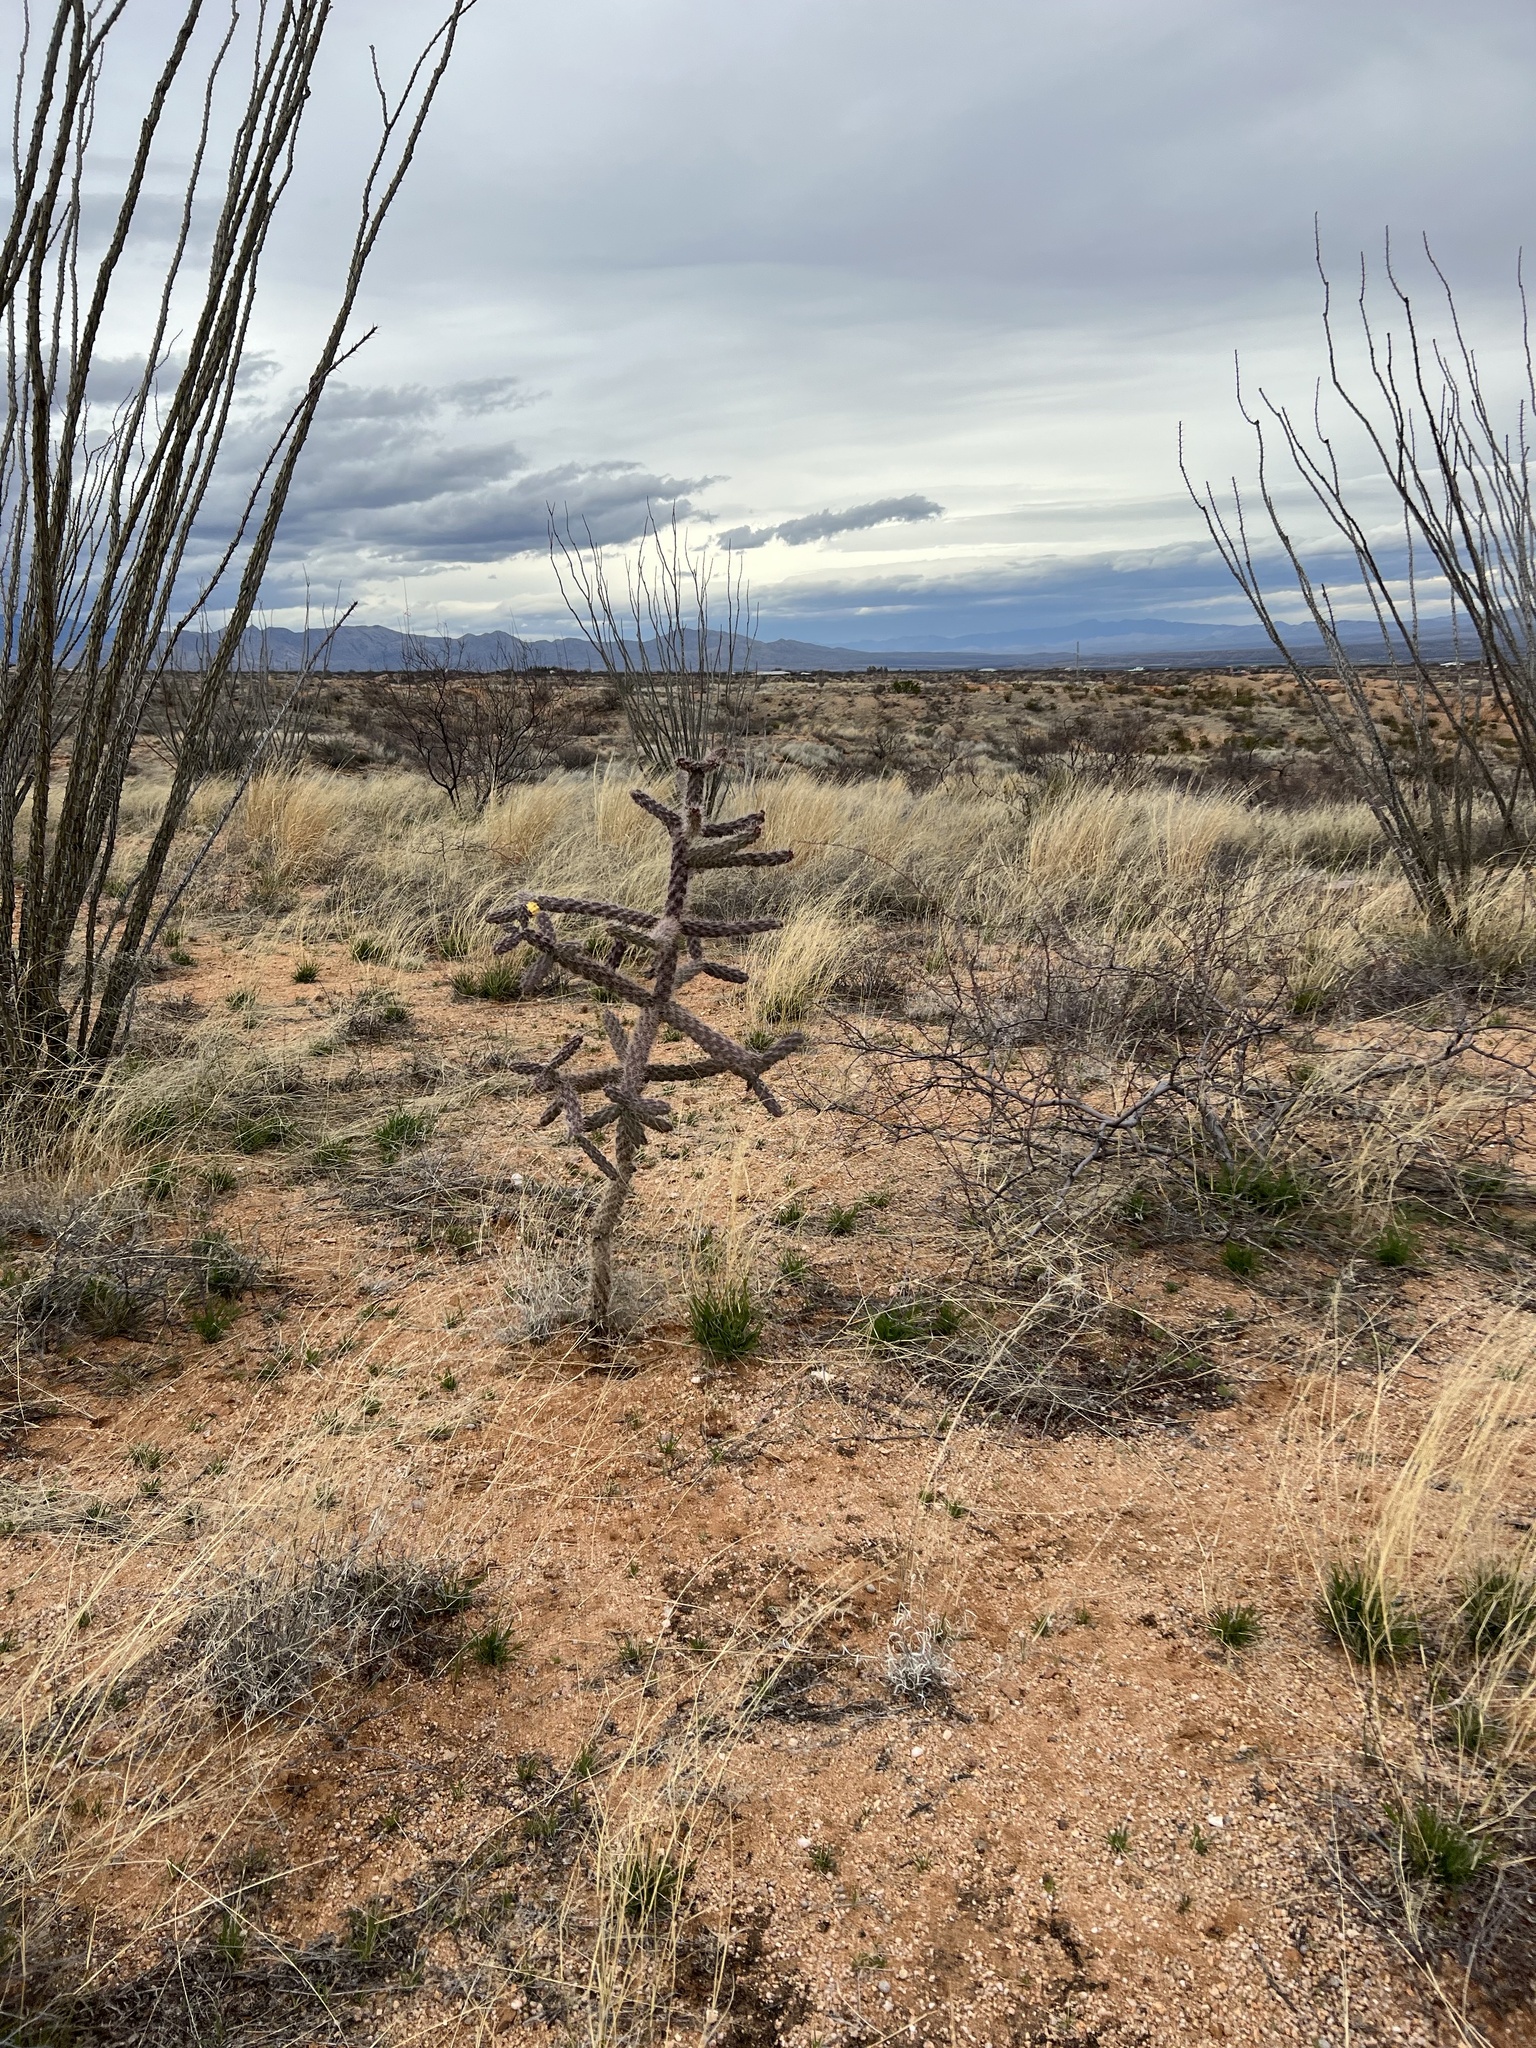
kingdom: Plantae
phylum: Tracheophyta
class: Magnoliopsida
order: Caryophyllales
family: Cactaceae
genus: Cylindropuntia
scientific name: Cylindropuntia imbricata
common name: Candelabrum cactus
